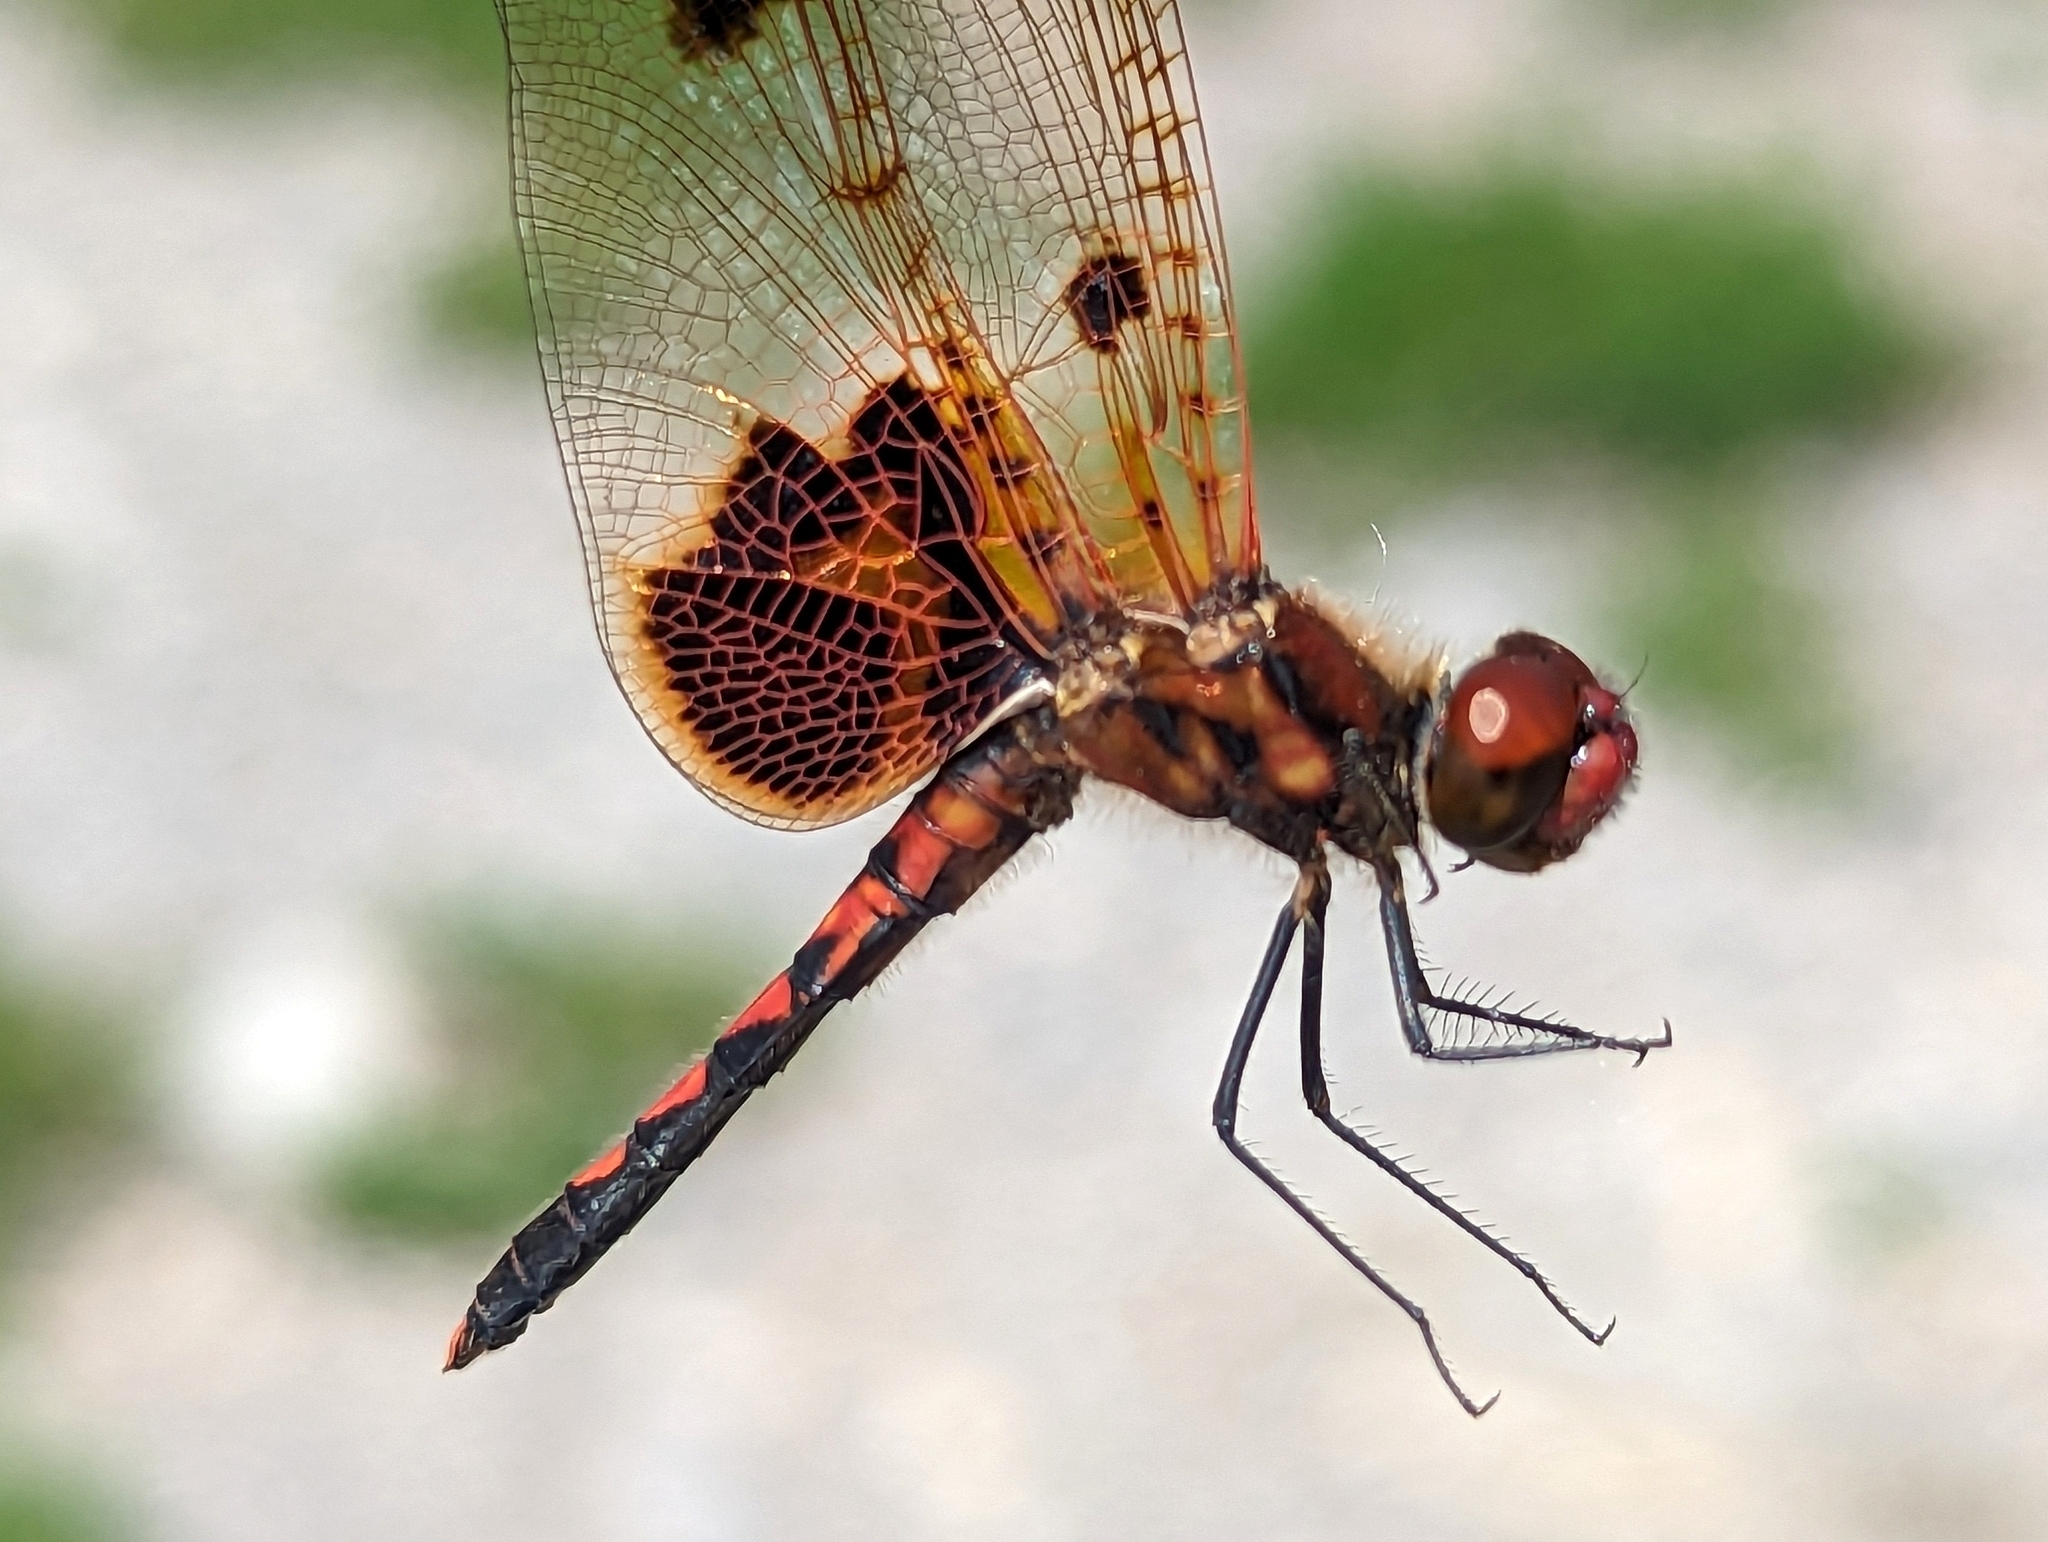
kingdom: Animalia
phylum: Arthropoda
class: Insecta
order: Odonata
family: Libellulidae
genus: Celithemis
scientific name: Celithemis elisa
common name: Calico pennant
